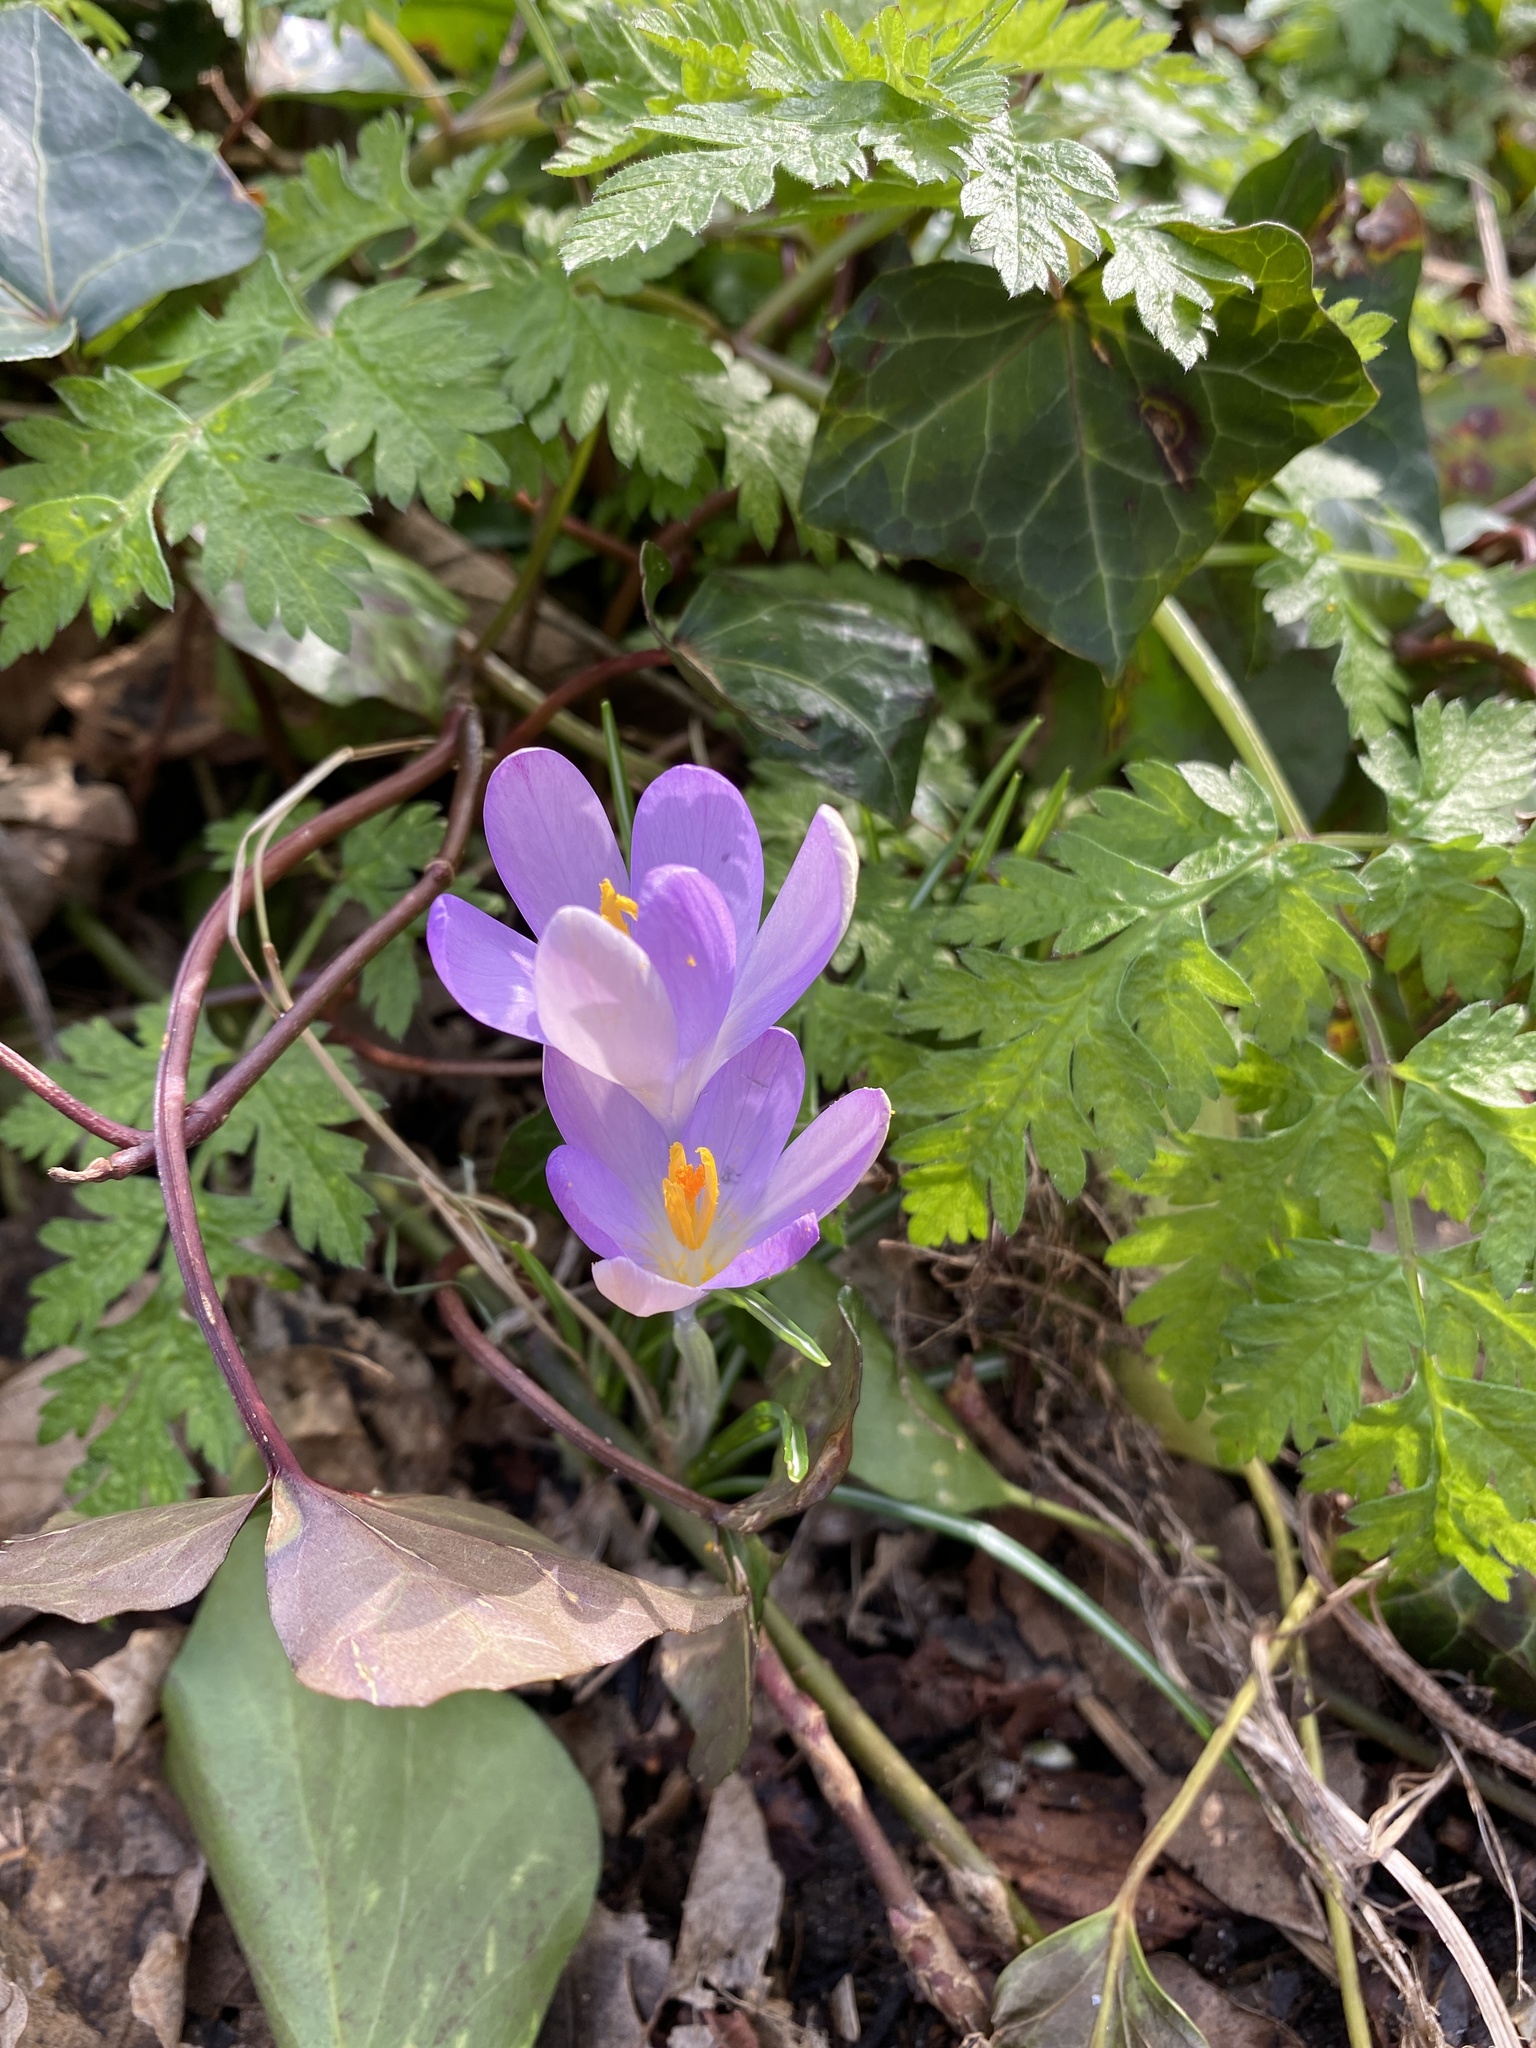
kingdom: Plantae
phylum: Tracheophyta
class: Liliopsida
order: Asparagales
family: Iridaceae
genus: Crocus
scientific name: Crocus tommasinianus
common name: Early crocus
